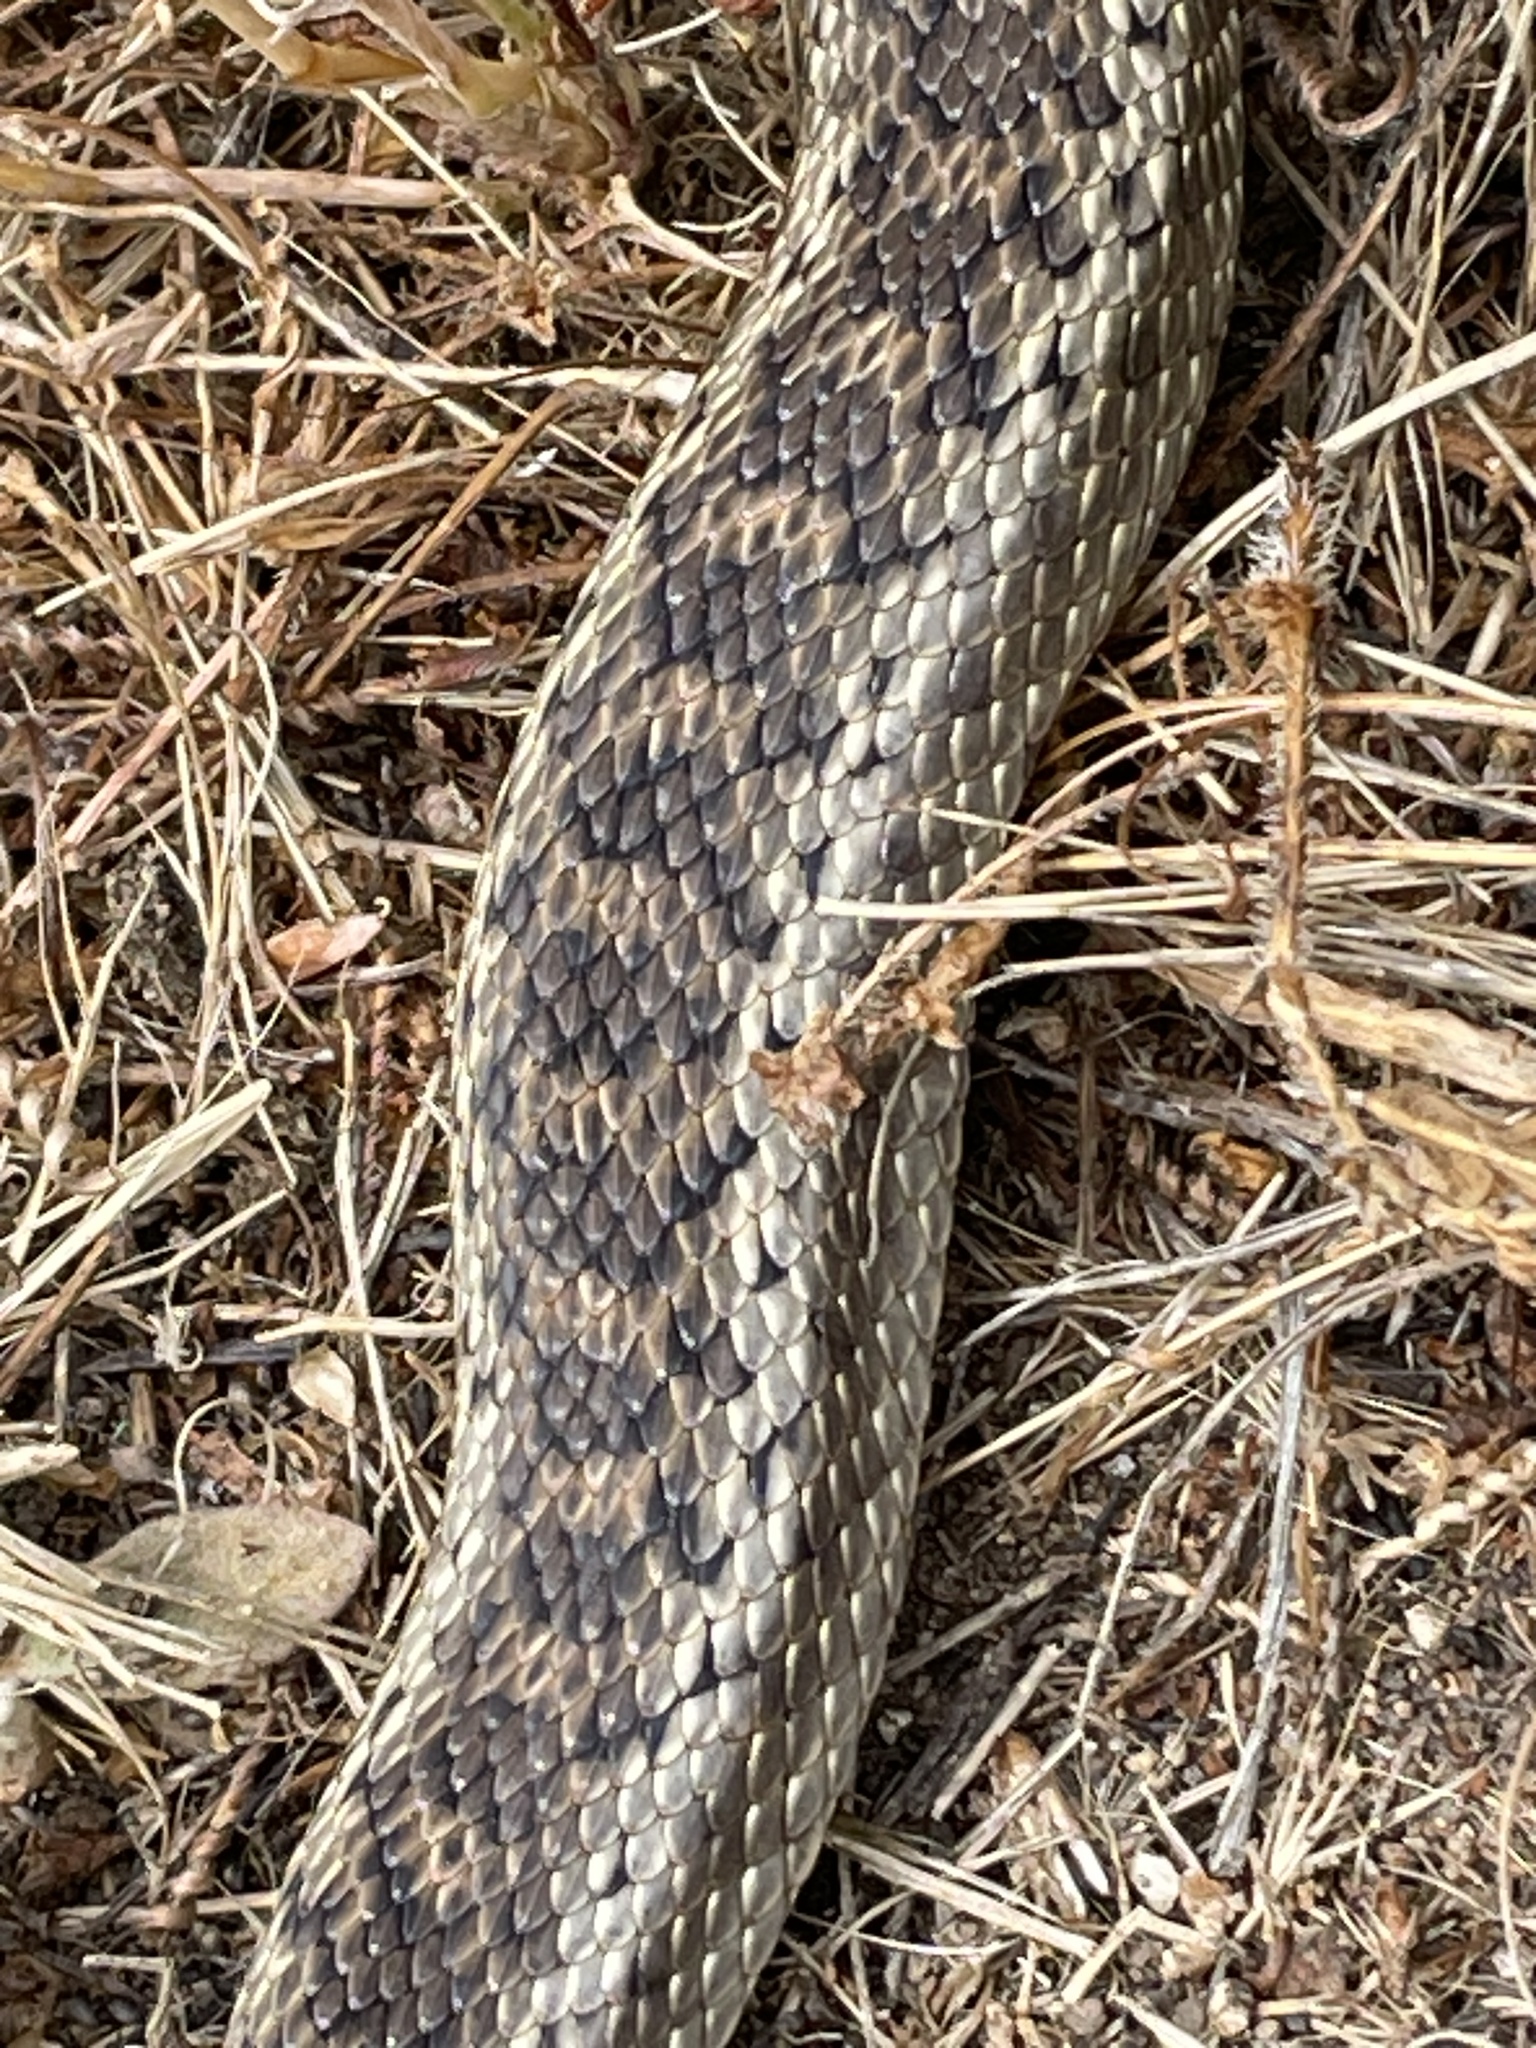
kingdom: Animalia
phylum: Chordata
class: Squamata
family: Colubridae
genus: Pituophis
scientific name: Pituophis catenifer
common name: Gopher snake
